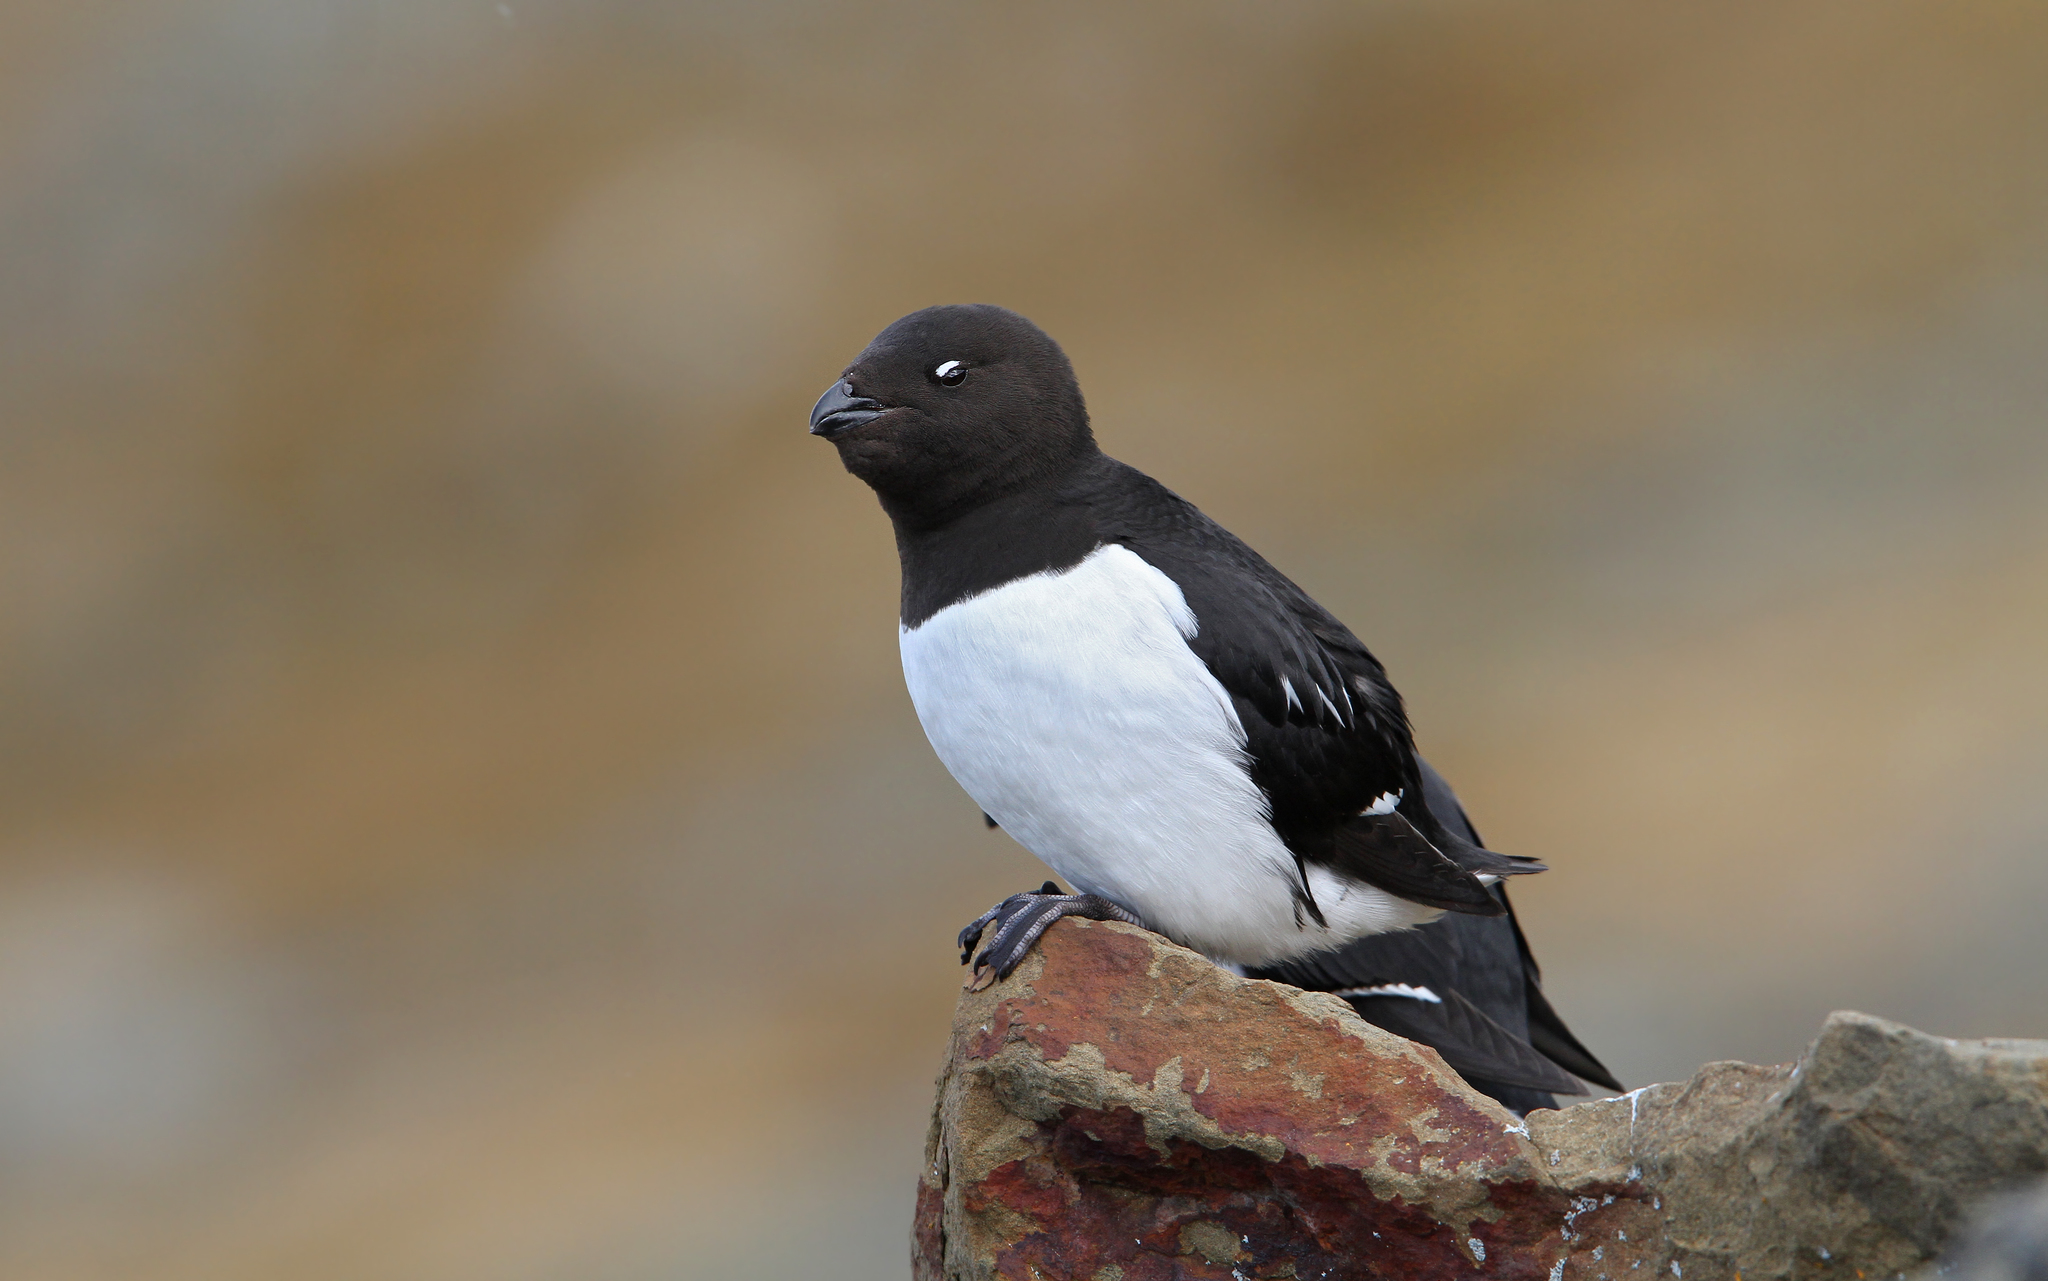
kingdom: Animalia
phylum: Chordata
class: Aves
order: Charadriiformes
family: Alcidae
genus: Alle
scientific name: Alle alle
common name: Little auk
